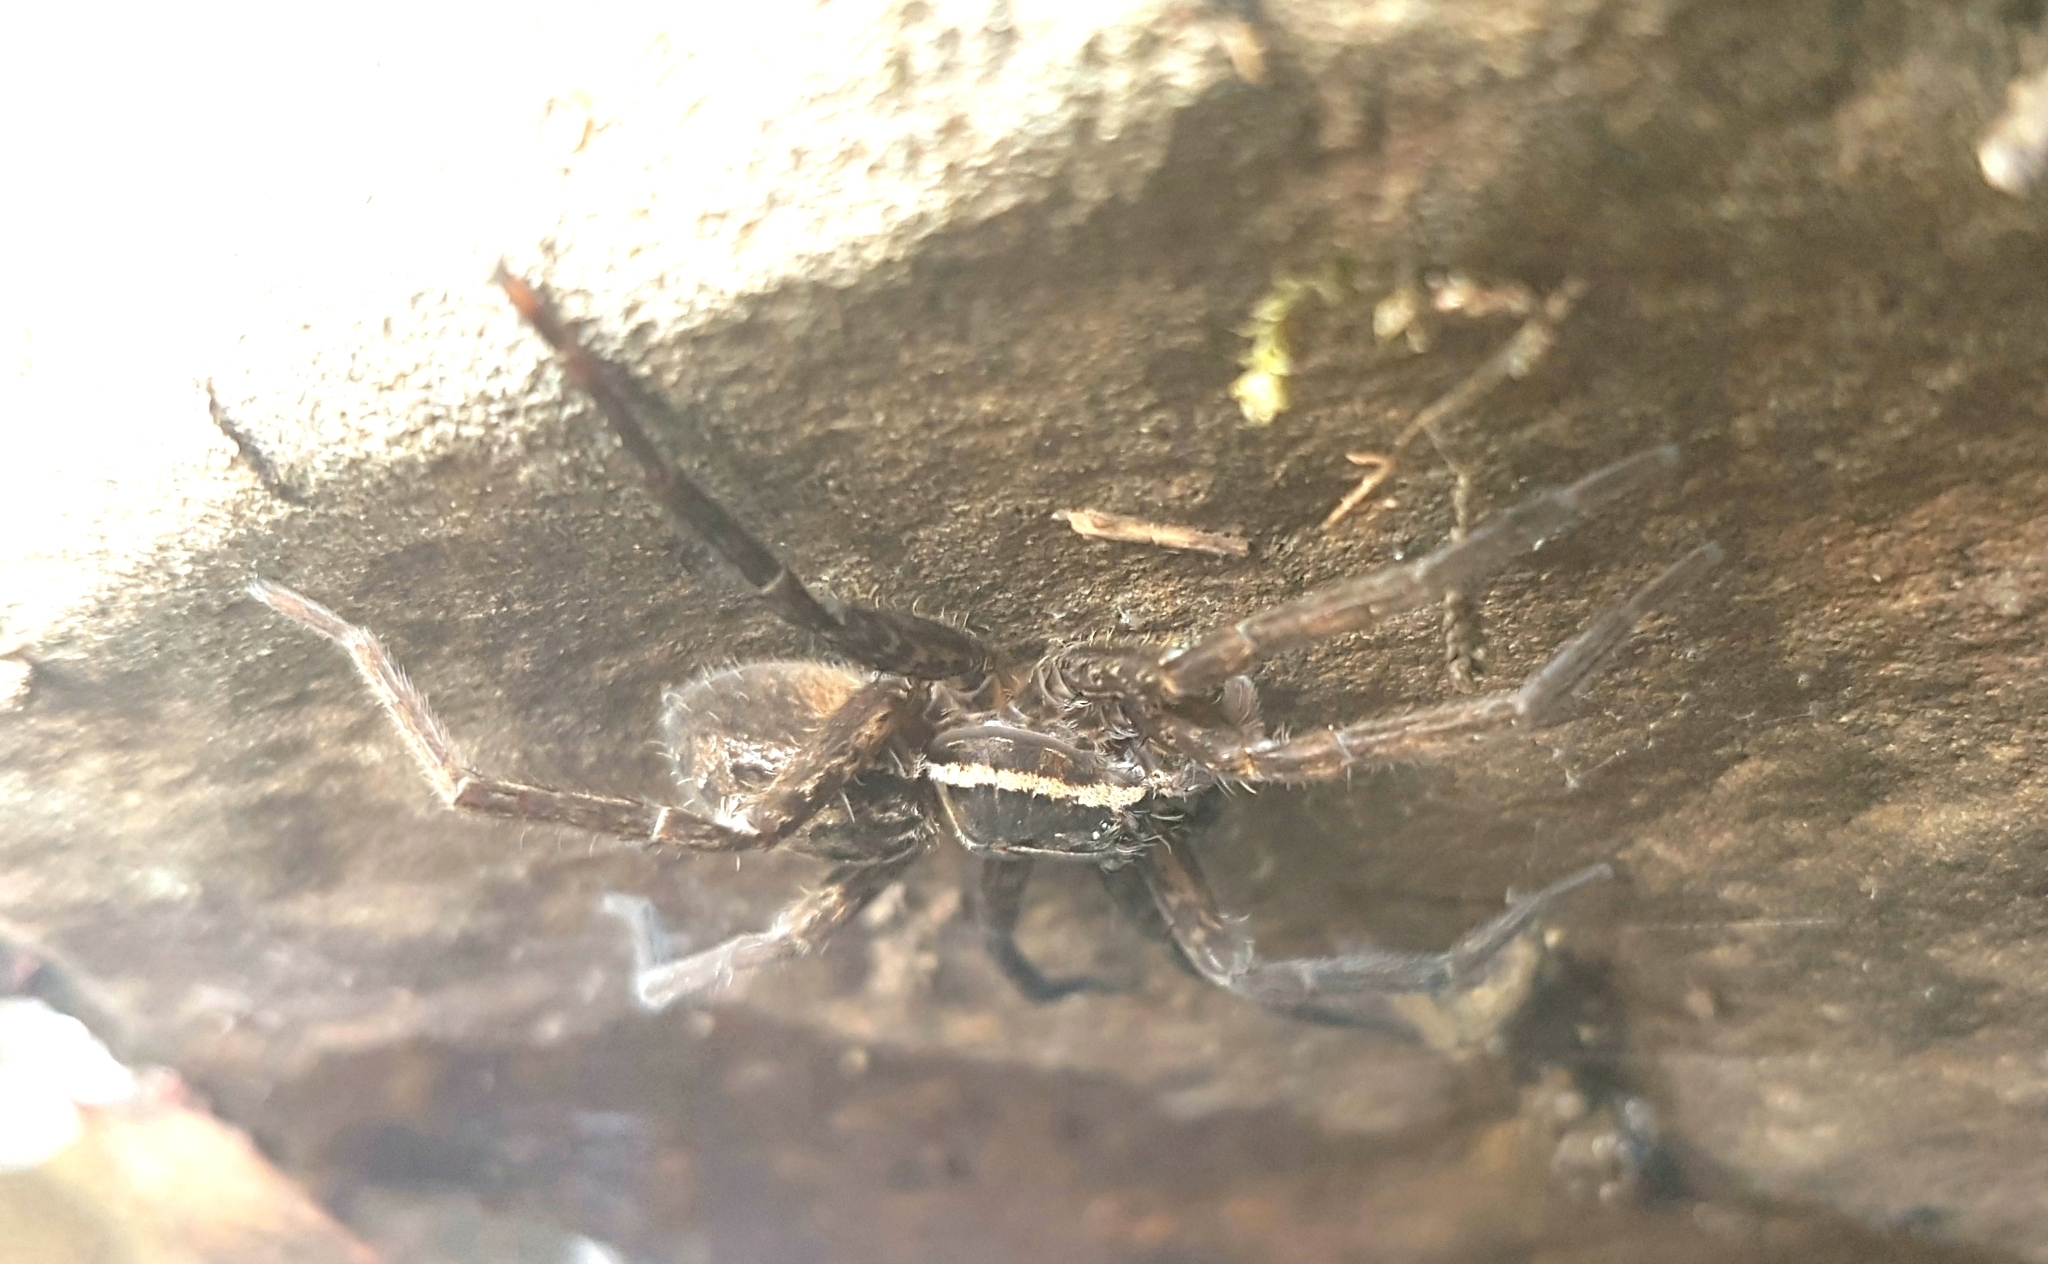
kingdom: Animalia
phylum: Arthropoda
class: Arachnida
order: Araneae
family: Pisauridae
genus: Dolomedes
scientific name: Dolomedes instabilis
